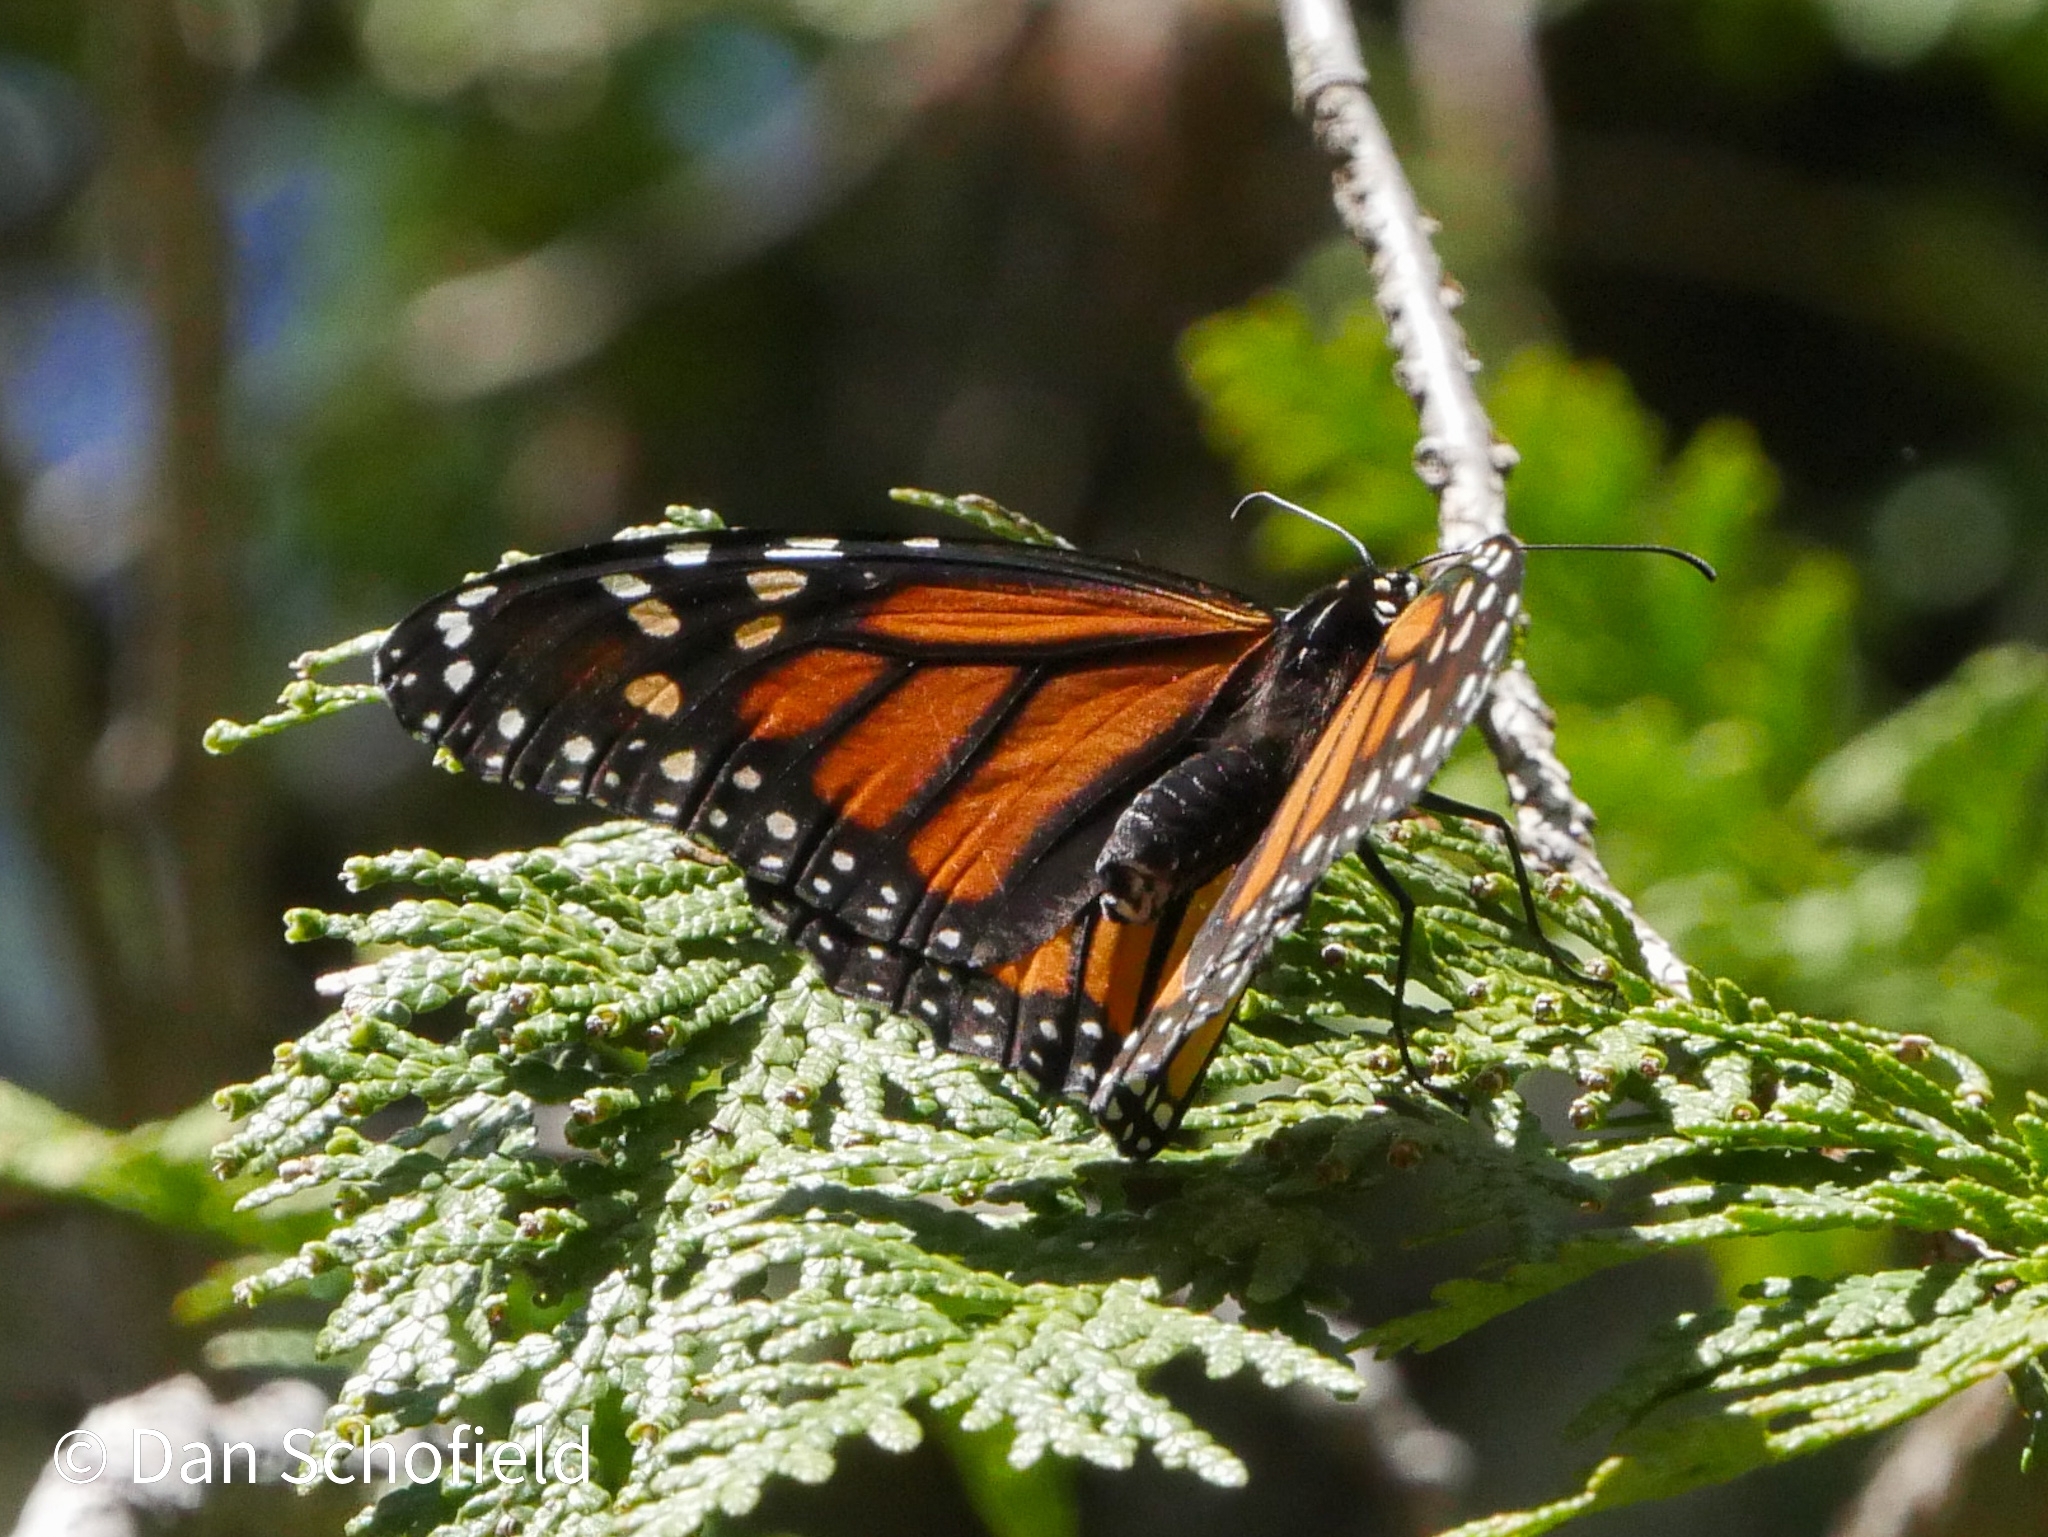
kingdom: Animalia
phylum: Arthropoda
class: Insecta
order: Lepidoptera
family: Nymphalidae
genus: Danaus
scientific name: Danaus plexippus
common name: Monarch
